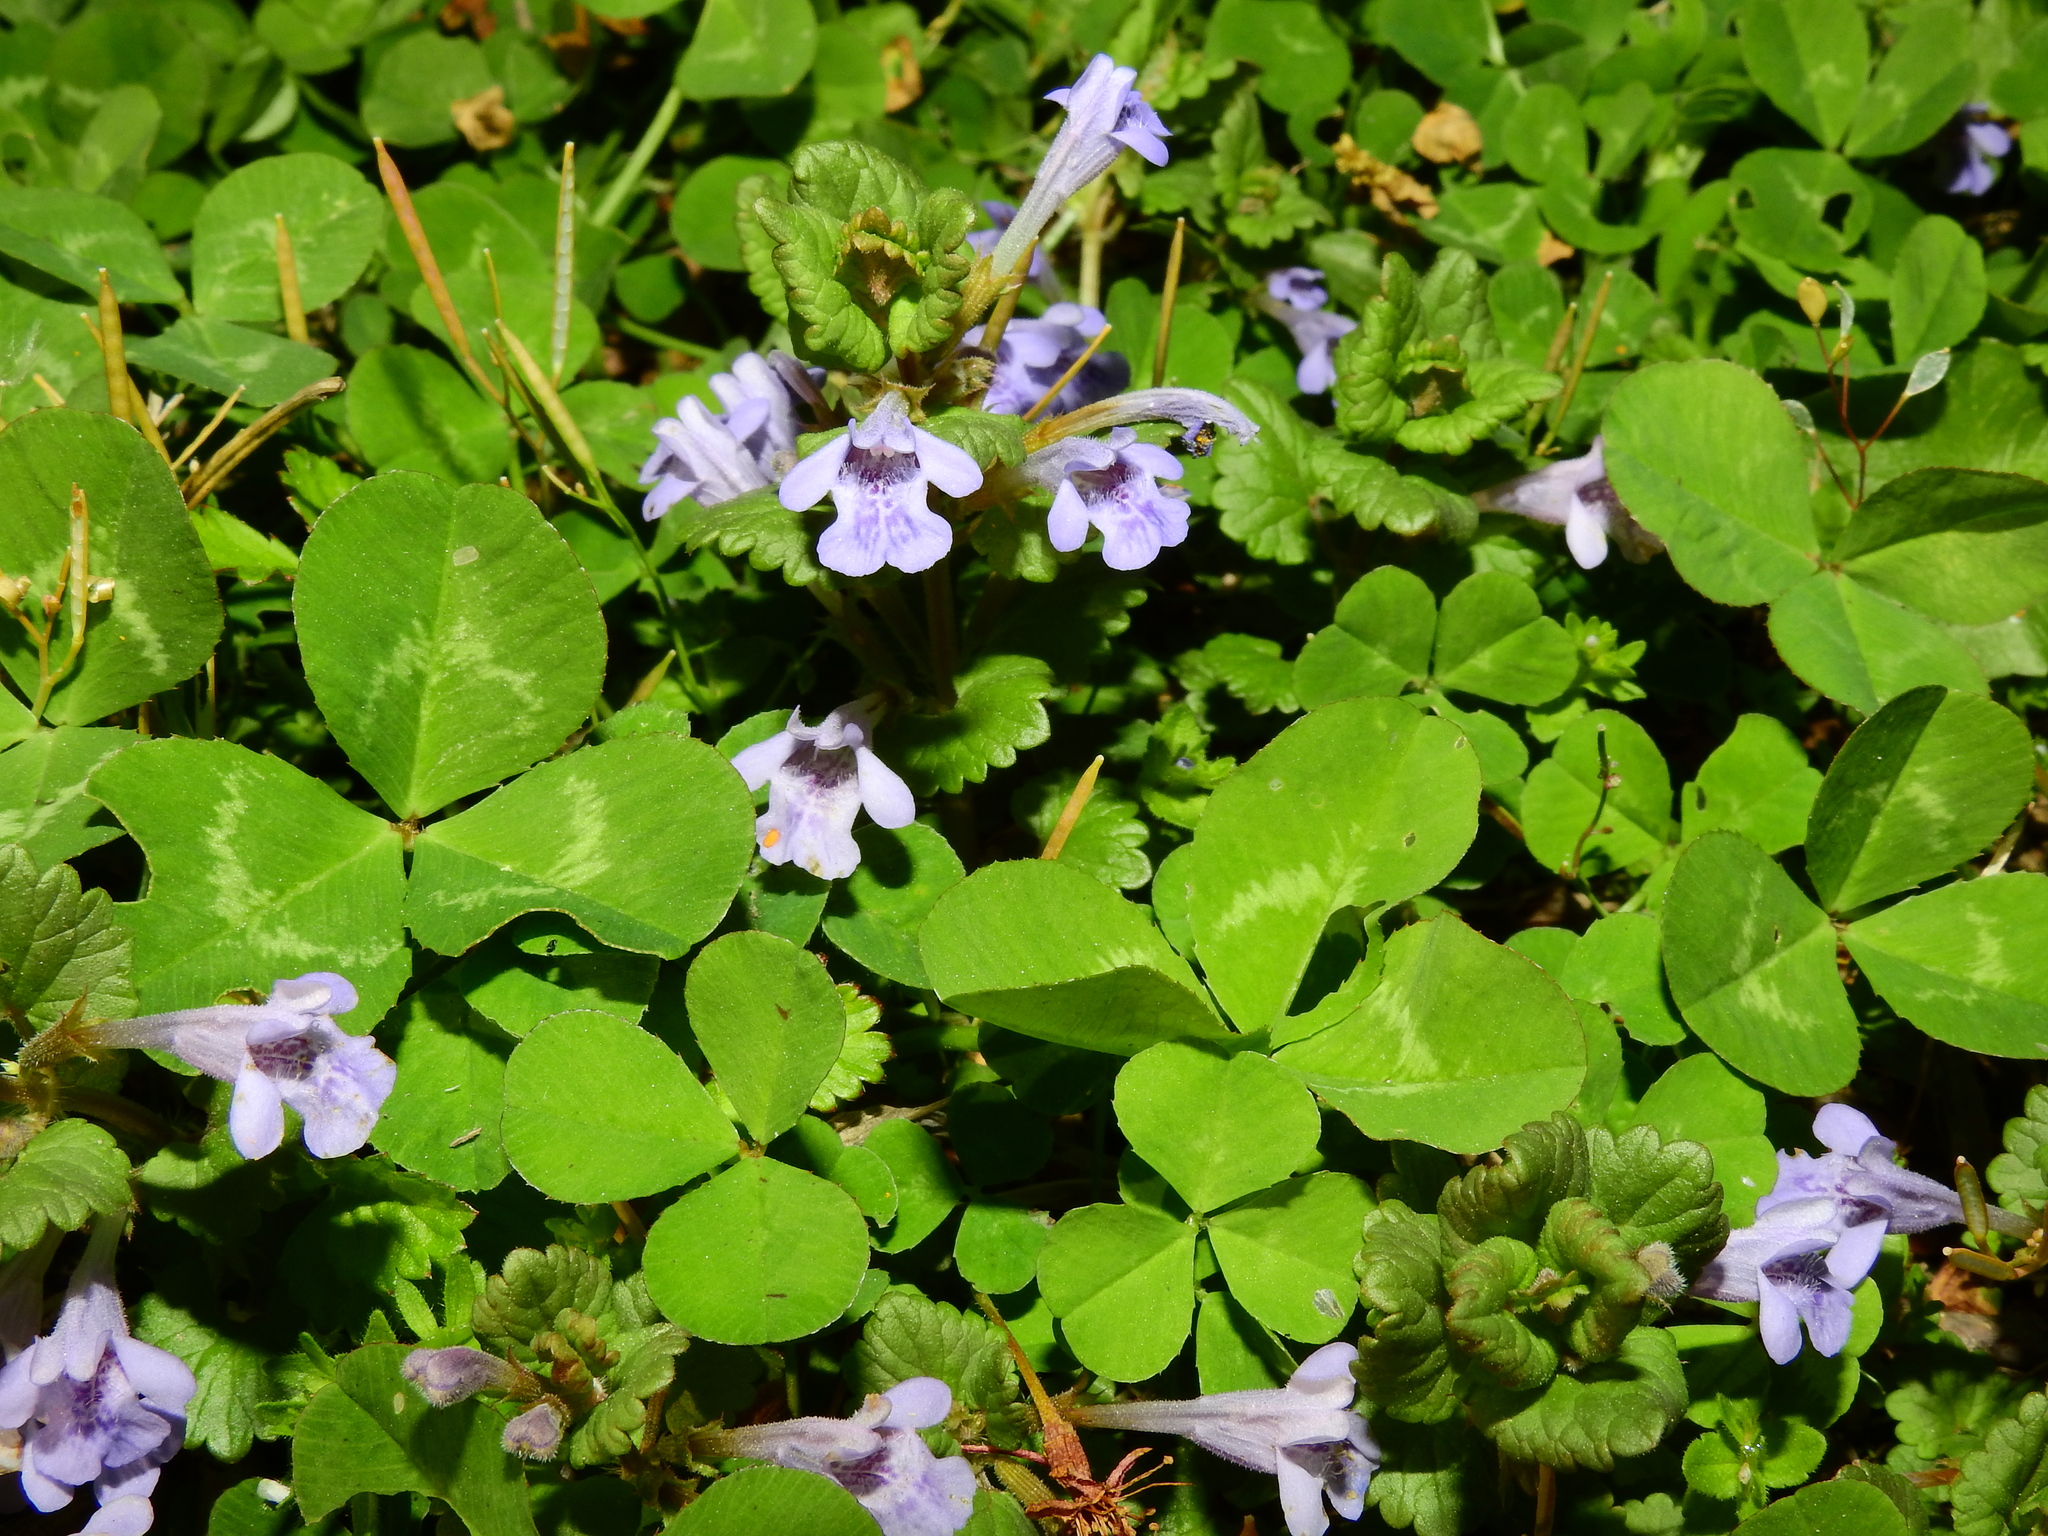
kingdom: Plantae
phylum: Tracheophyta
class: Magnoliopsida
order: Lamiales
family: Lamiaceae
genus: Glechoma
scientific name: Glechoma hederacea
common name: Ground ivy
